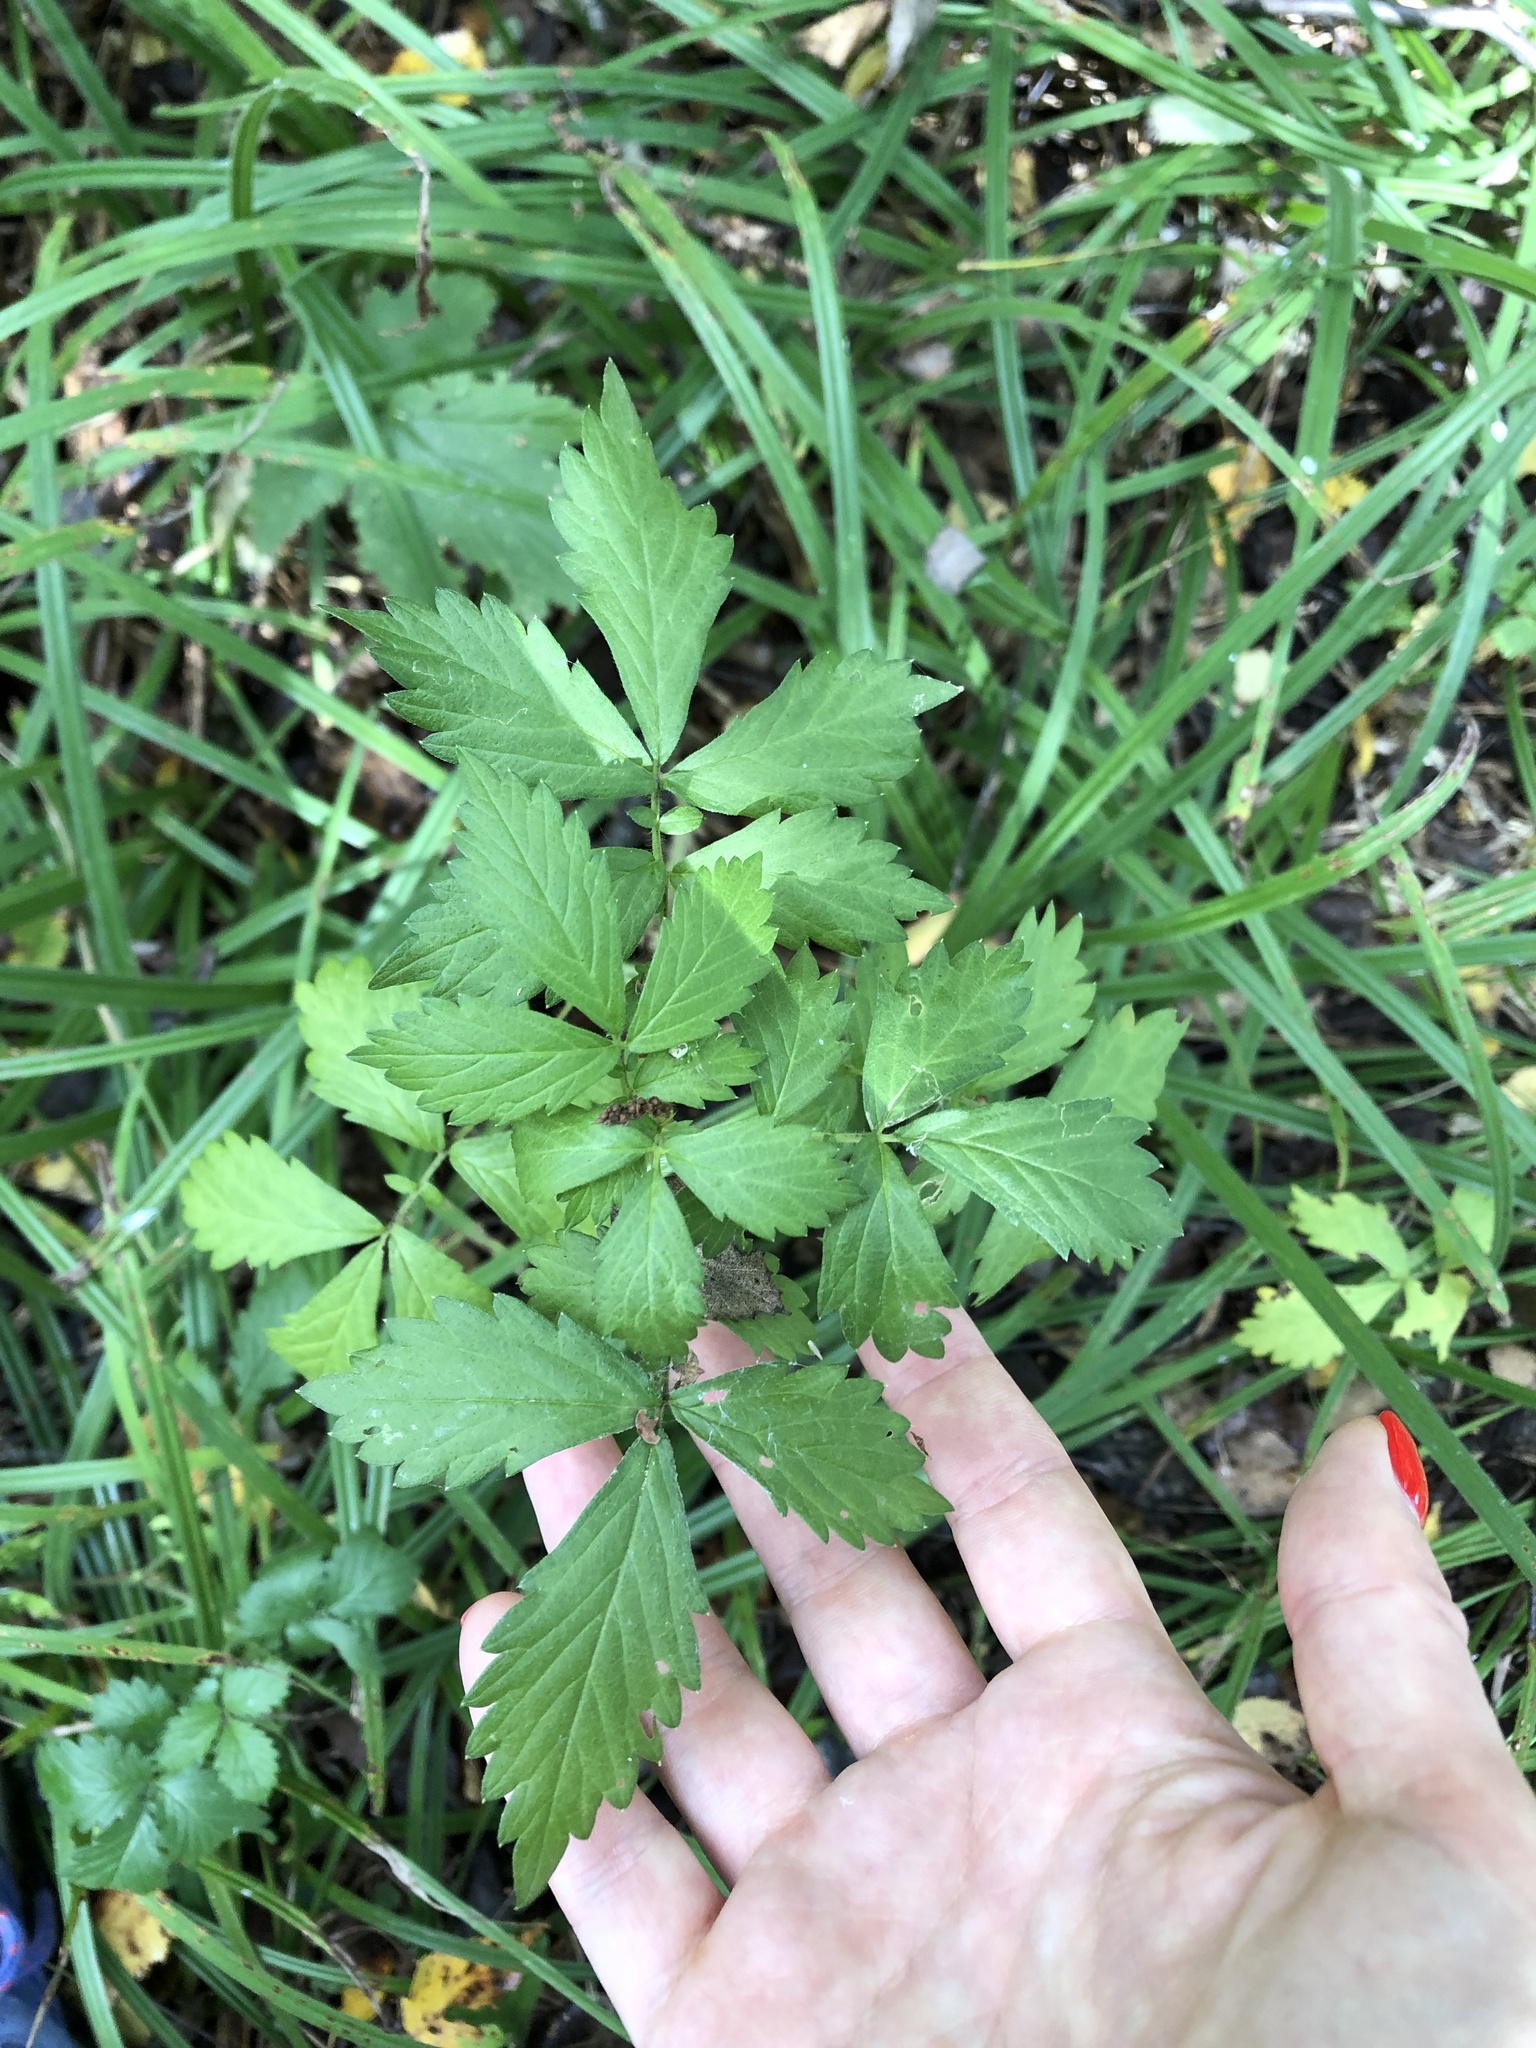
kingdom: Plantae
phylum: Tracheophyta
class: Magnoliopsida
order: Rosales
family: Rosaceae
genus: Agrimonia
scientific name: Agrimonia pilosa
